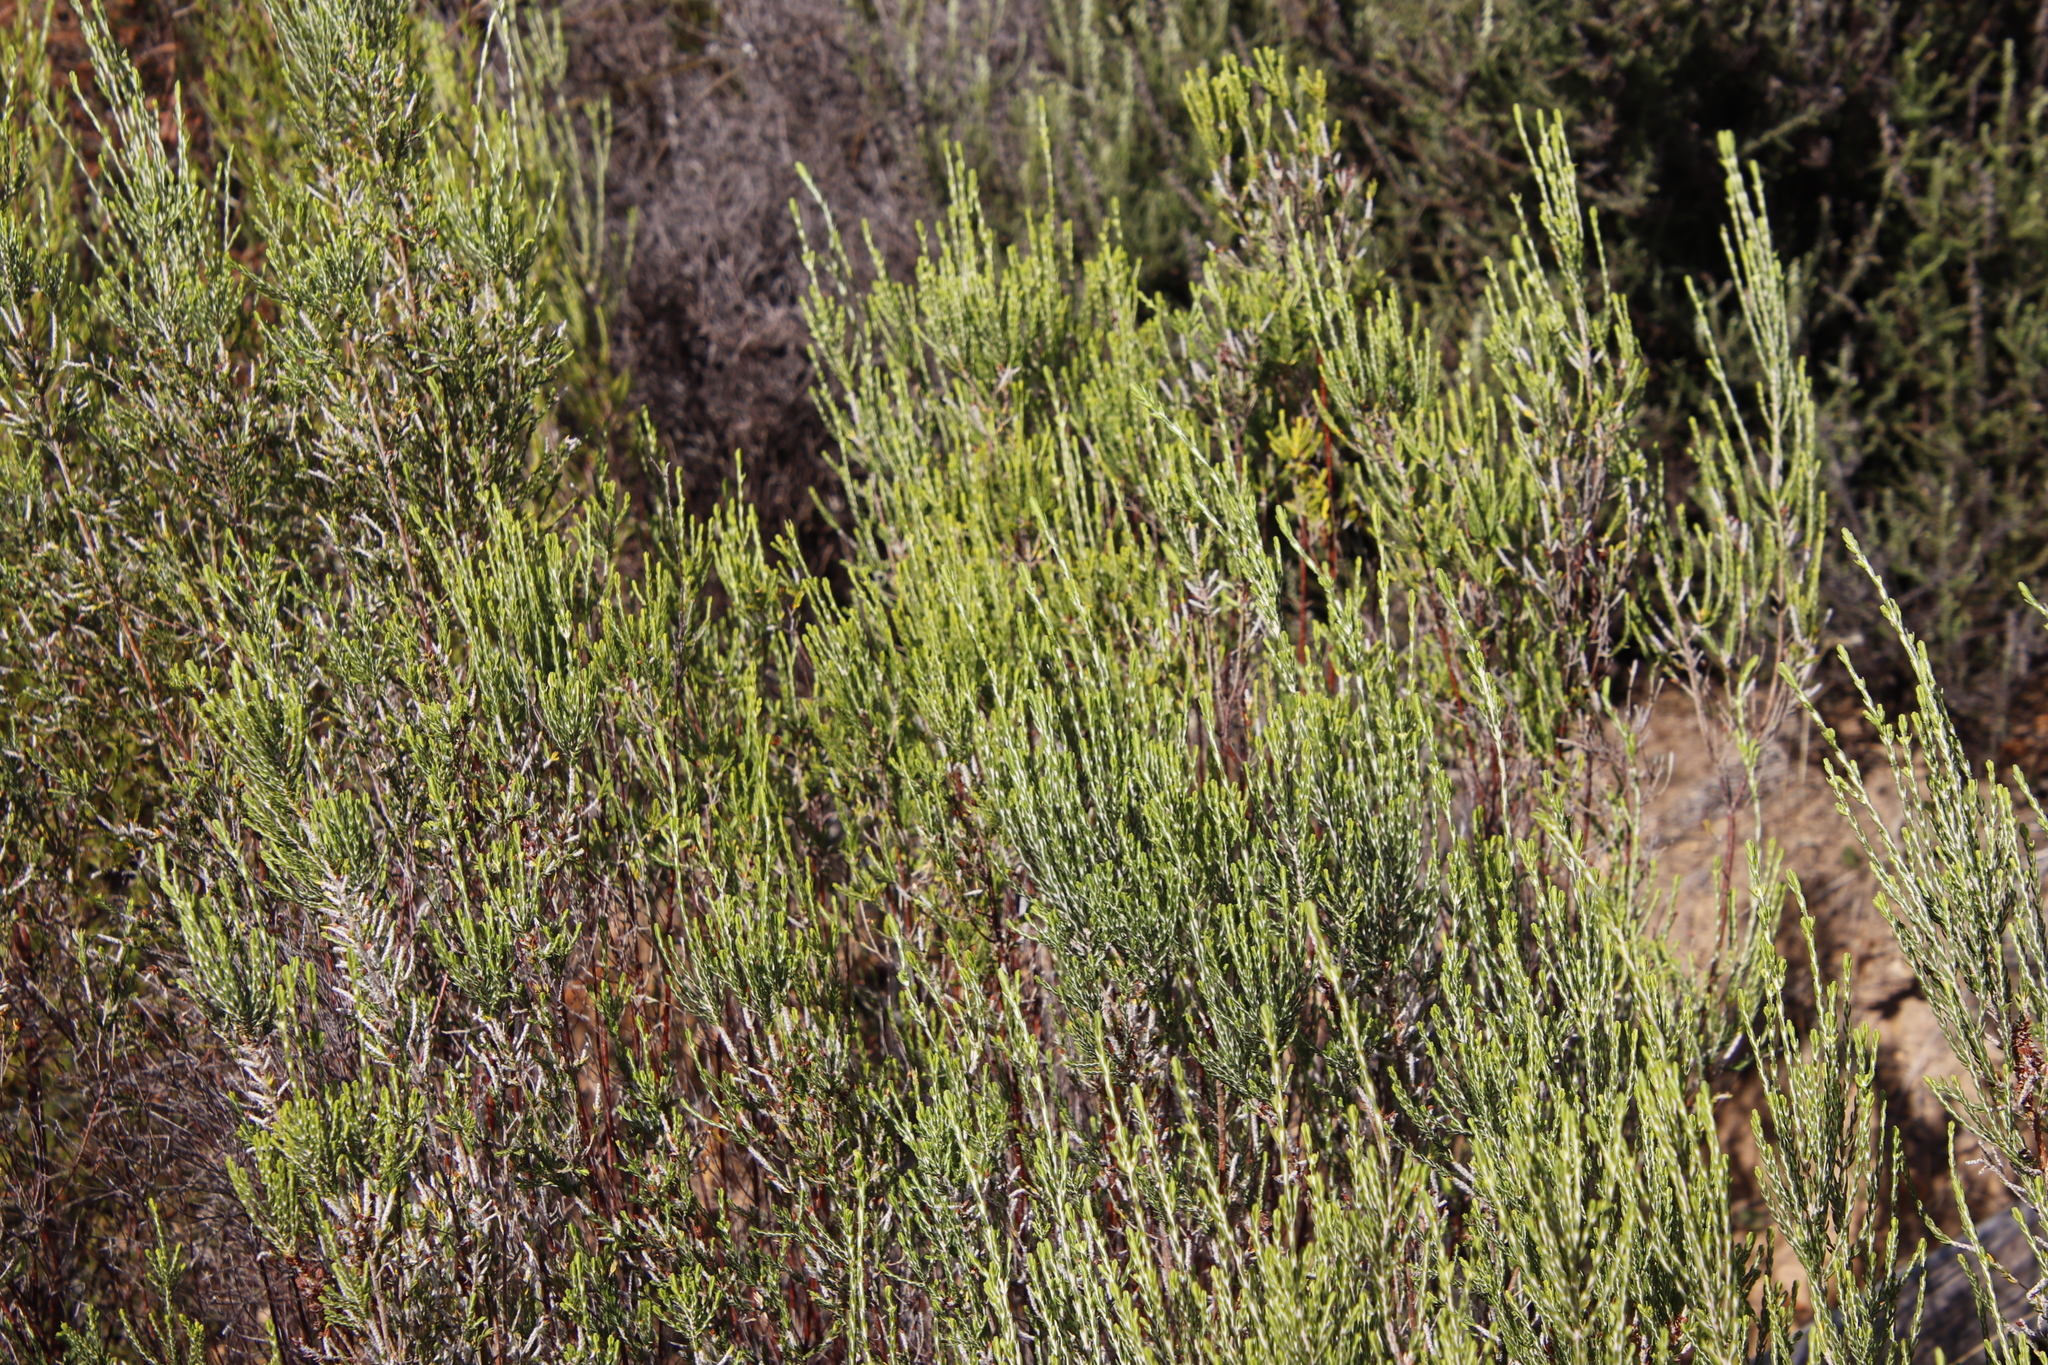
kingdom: Plantae
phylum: Tracheophyta
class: Magnoliopsida
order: Malvales
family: Thymelaeaceae
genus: Passerina
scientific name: Passerina corymbosa
